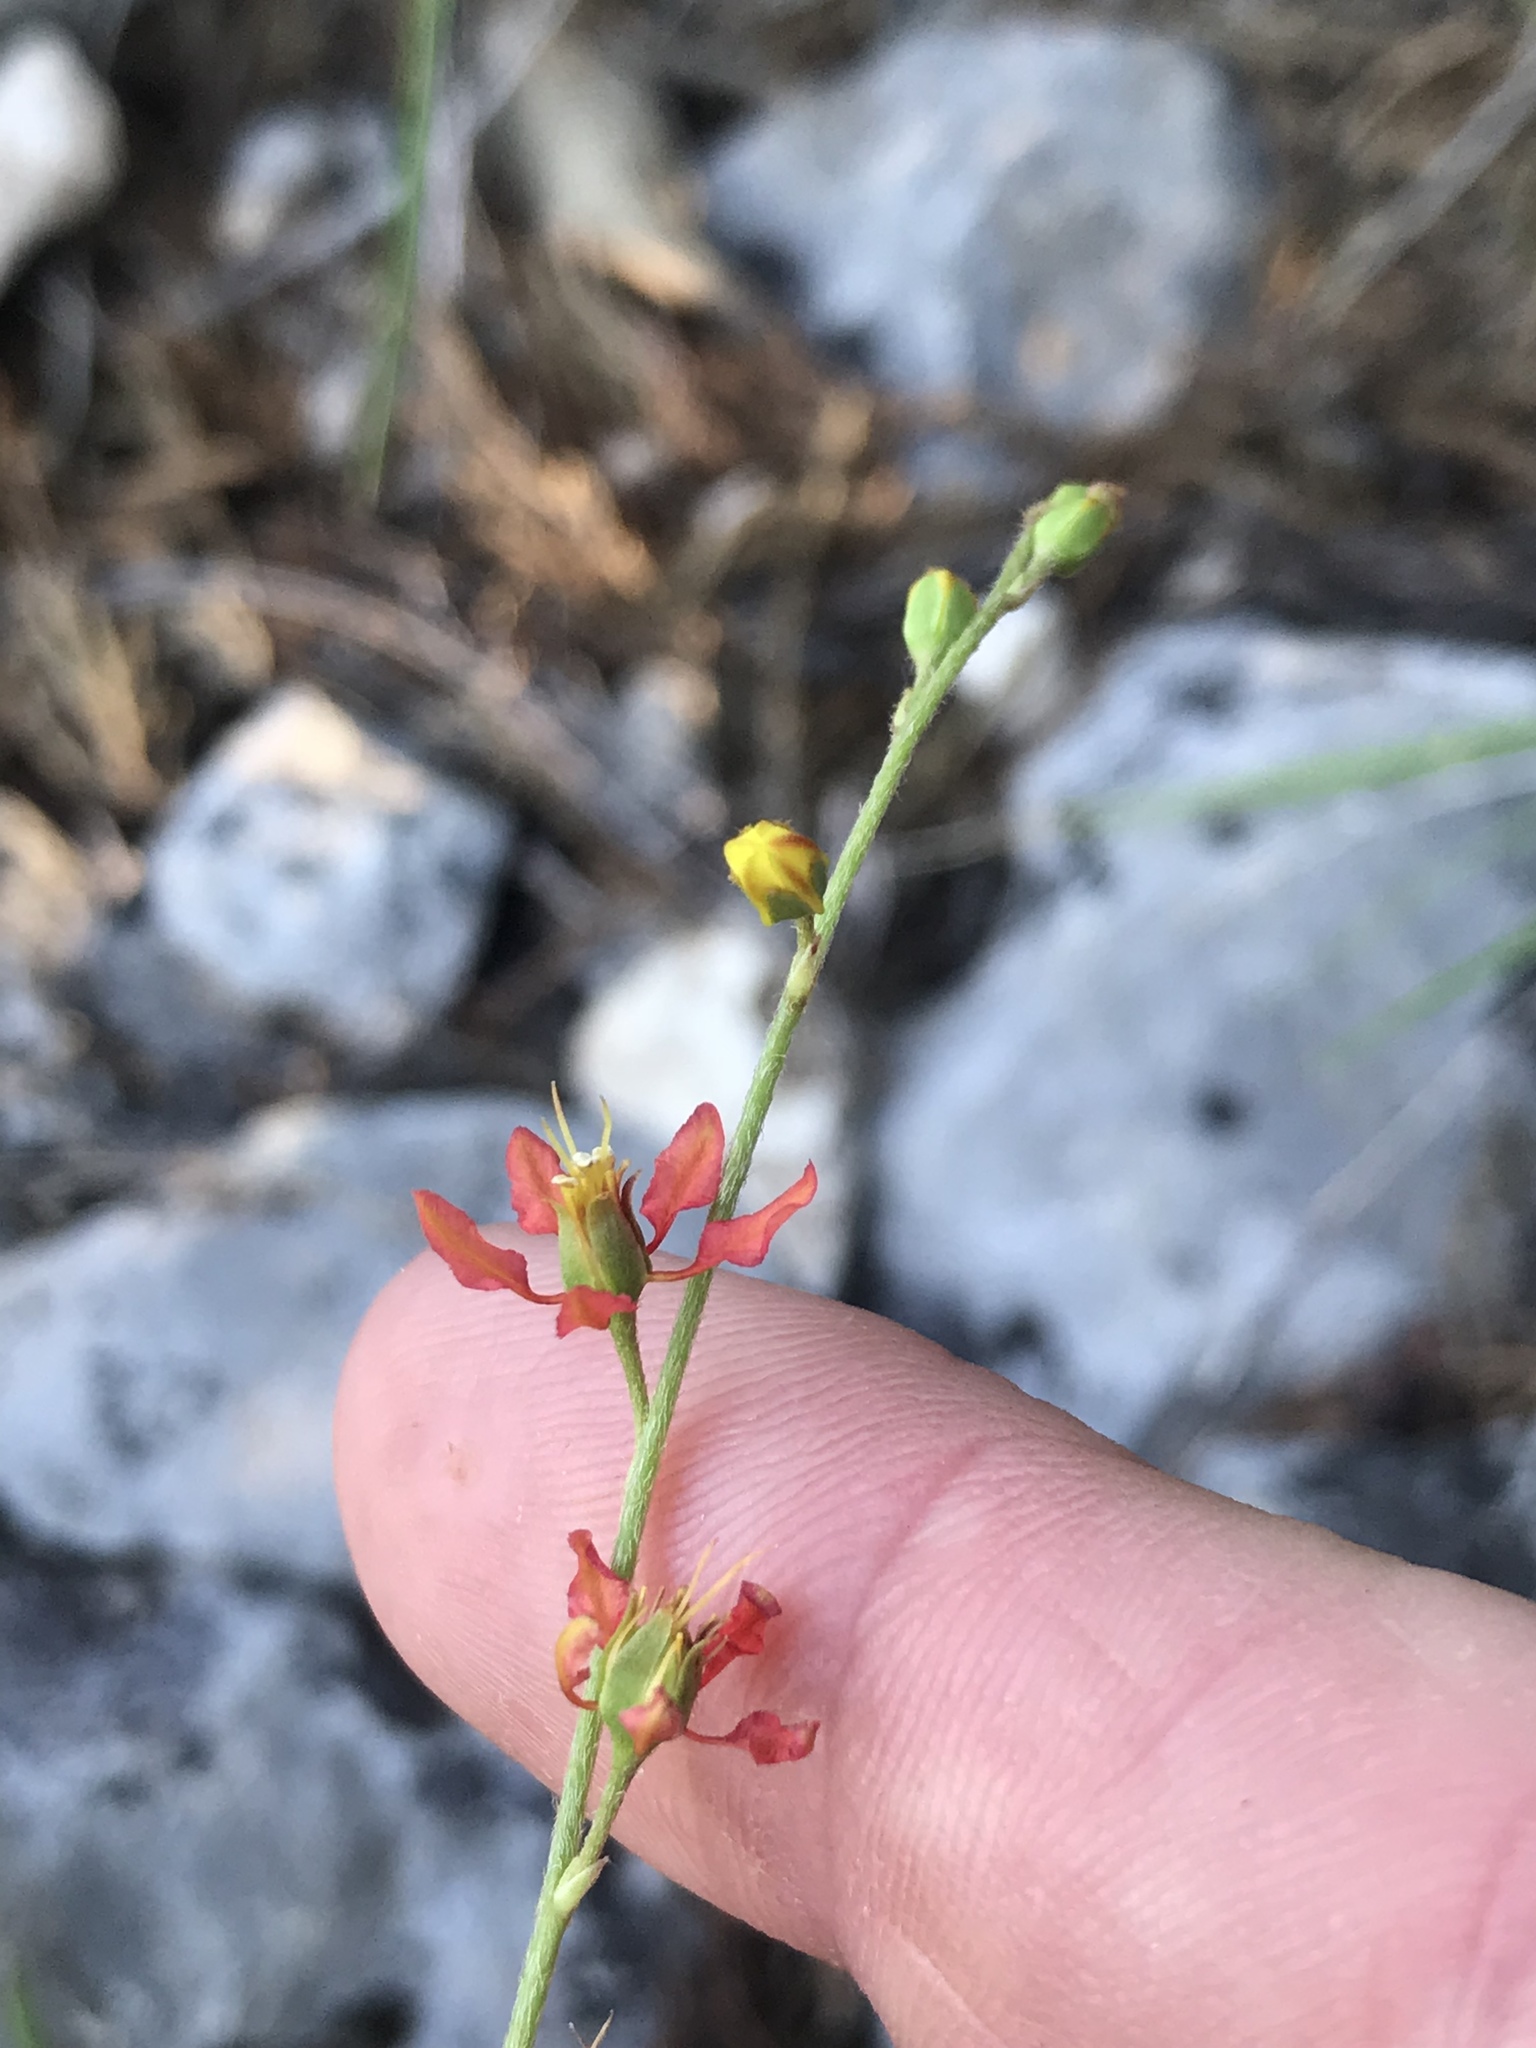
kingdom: Plantae
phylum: Tracheophyta
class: Magnoliopsida
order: Malpighiales
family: Malpighiaceae
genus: Galphimia
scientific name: Galphimia angustifolia
